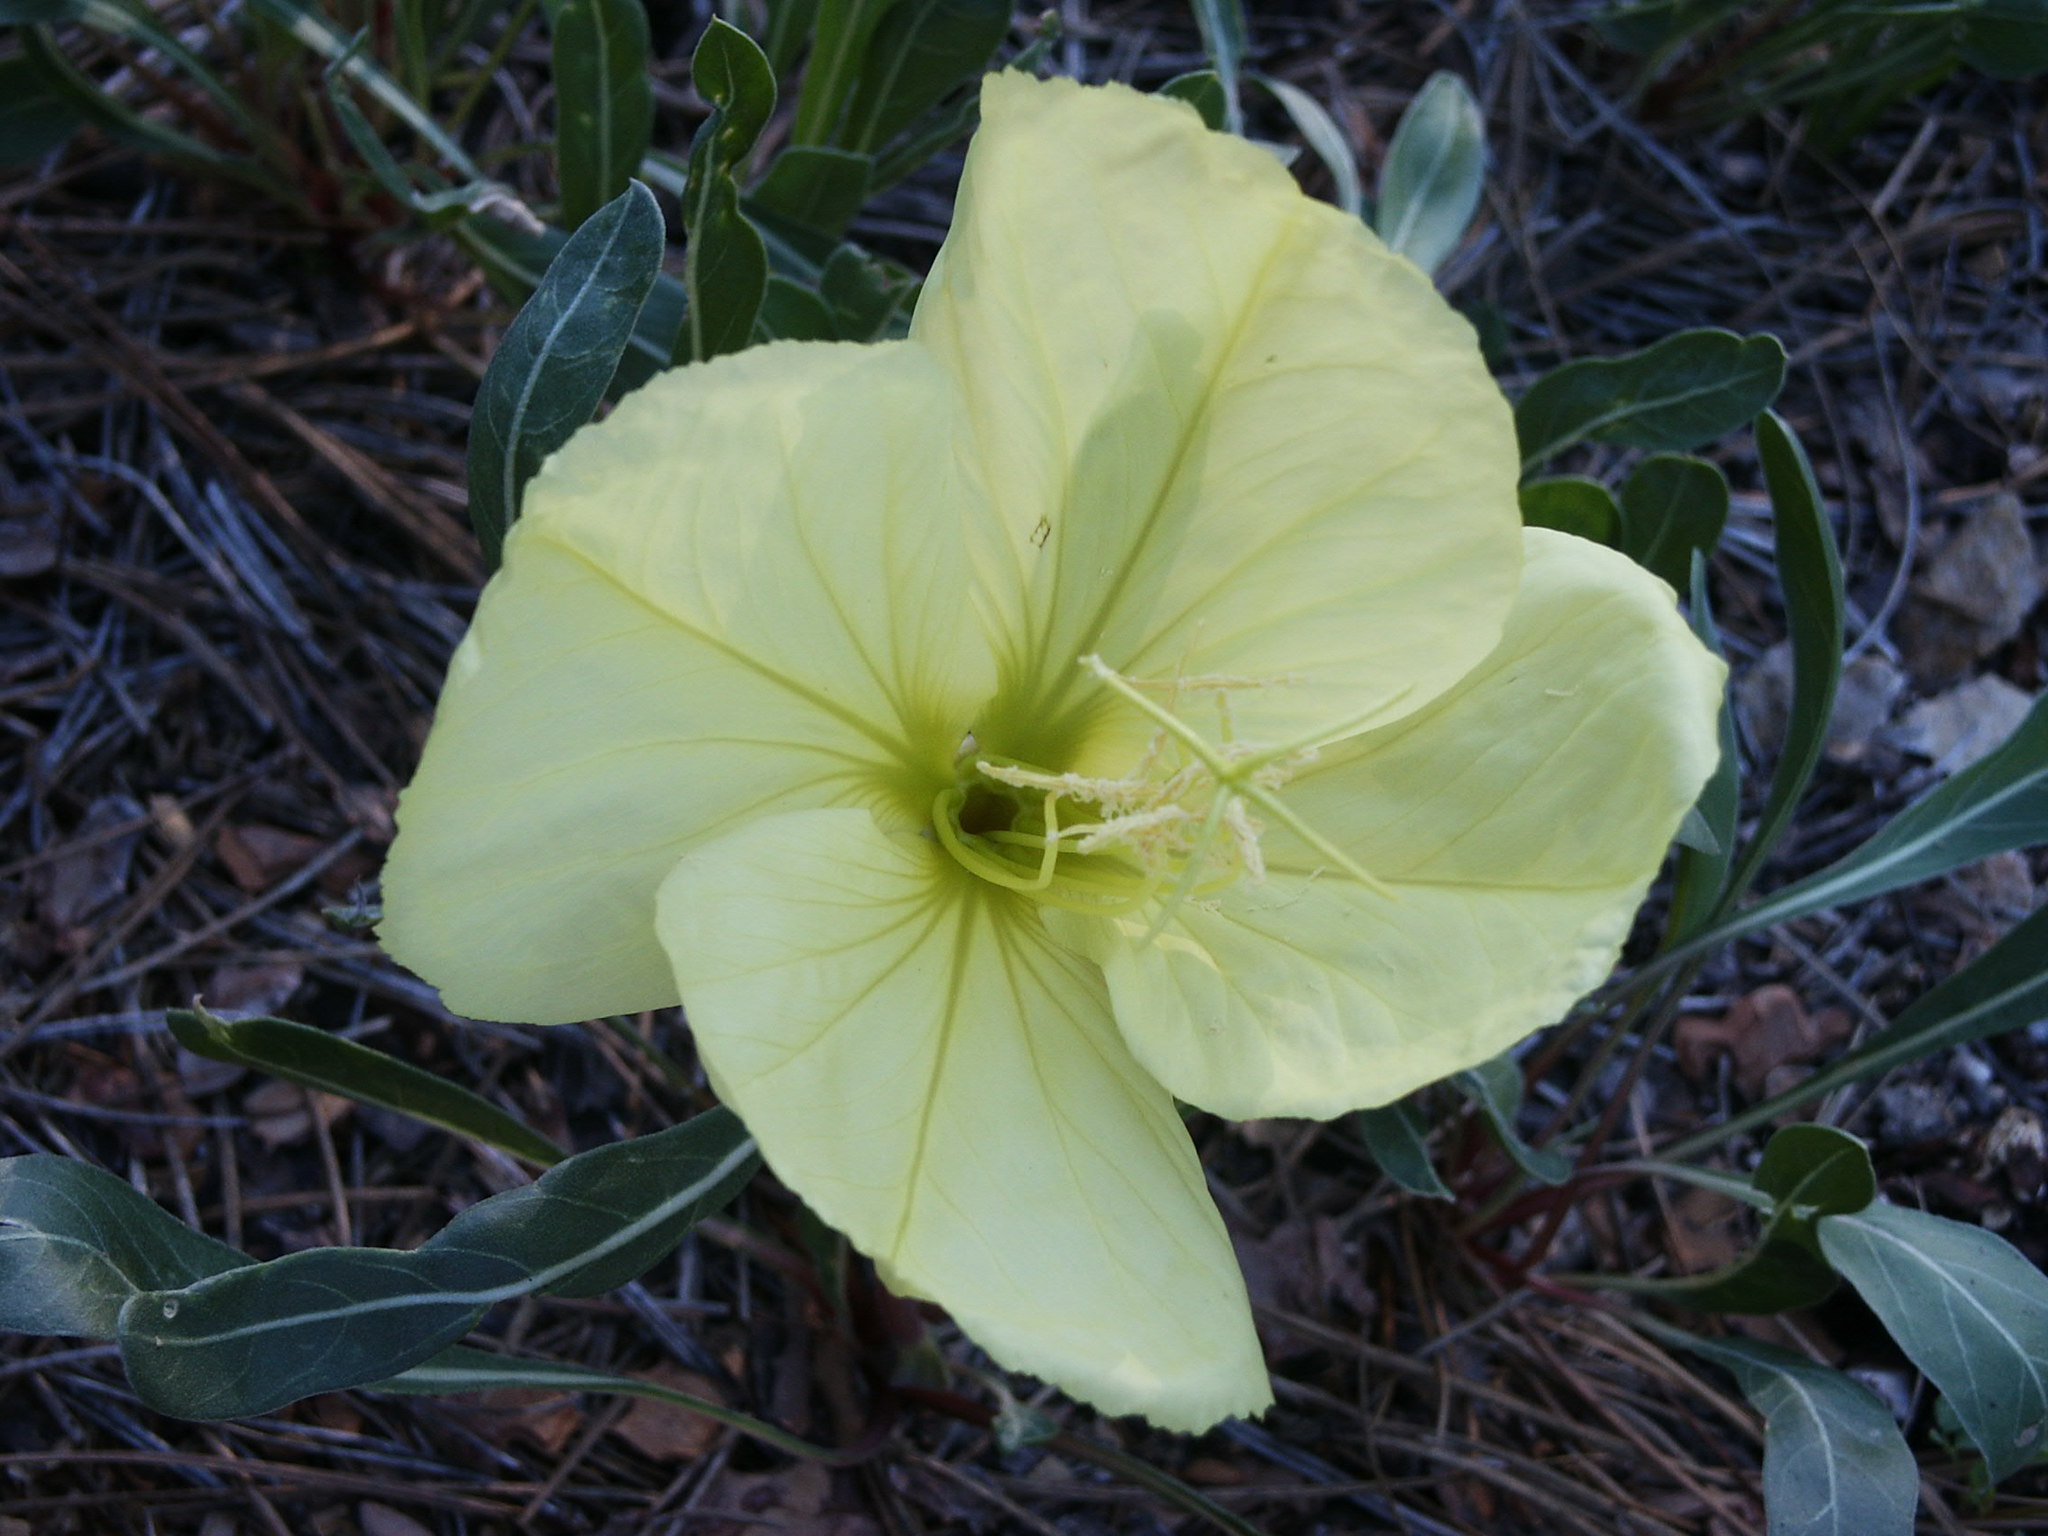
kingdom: Plantae
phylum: Tracheophyta
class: Magnoliopsida
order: Myrtales
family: Onagraceae
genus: Oenothera
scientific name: Oenothera howardii
